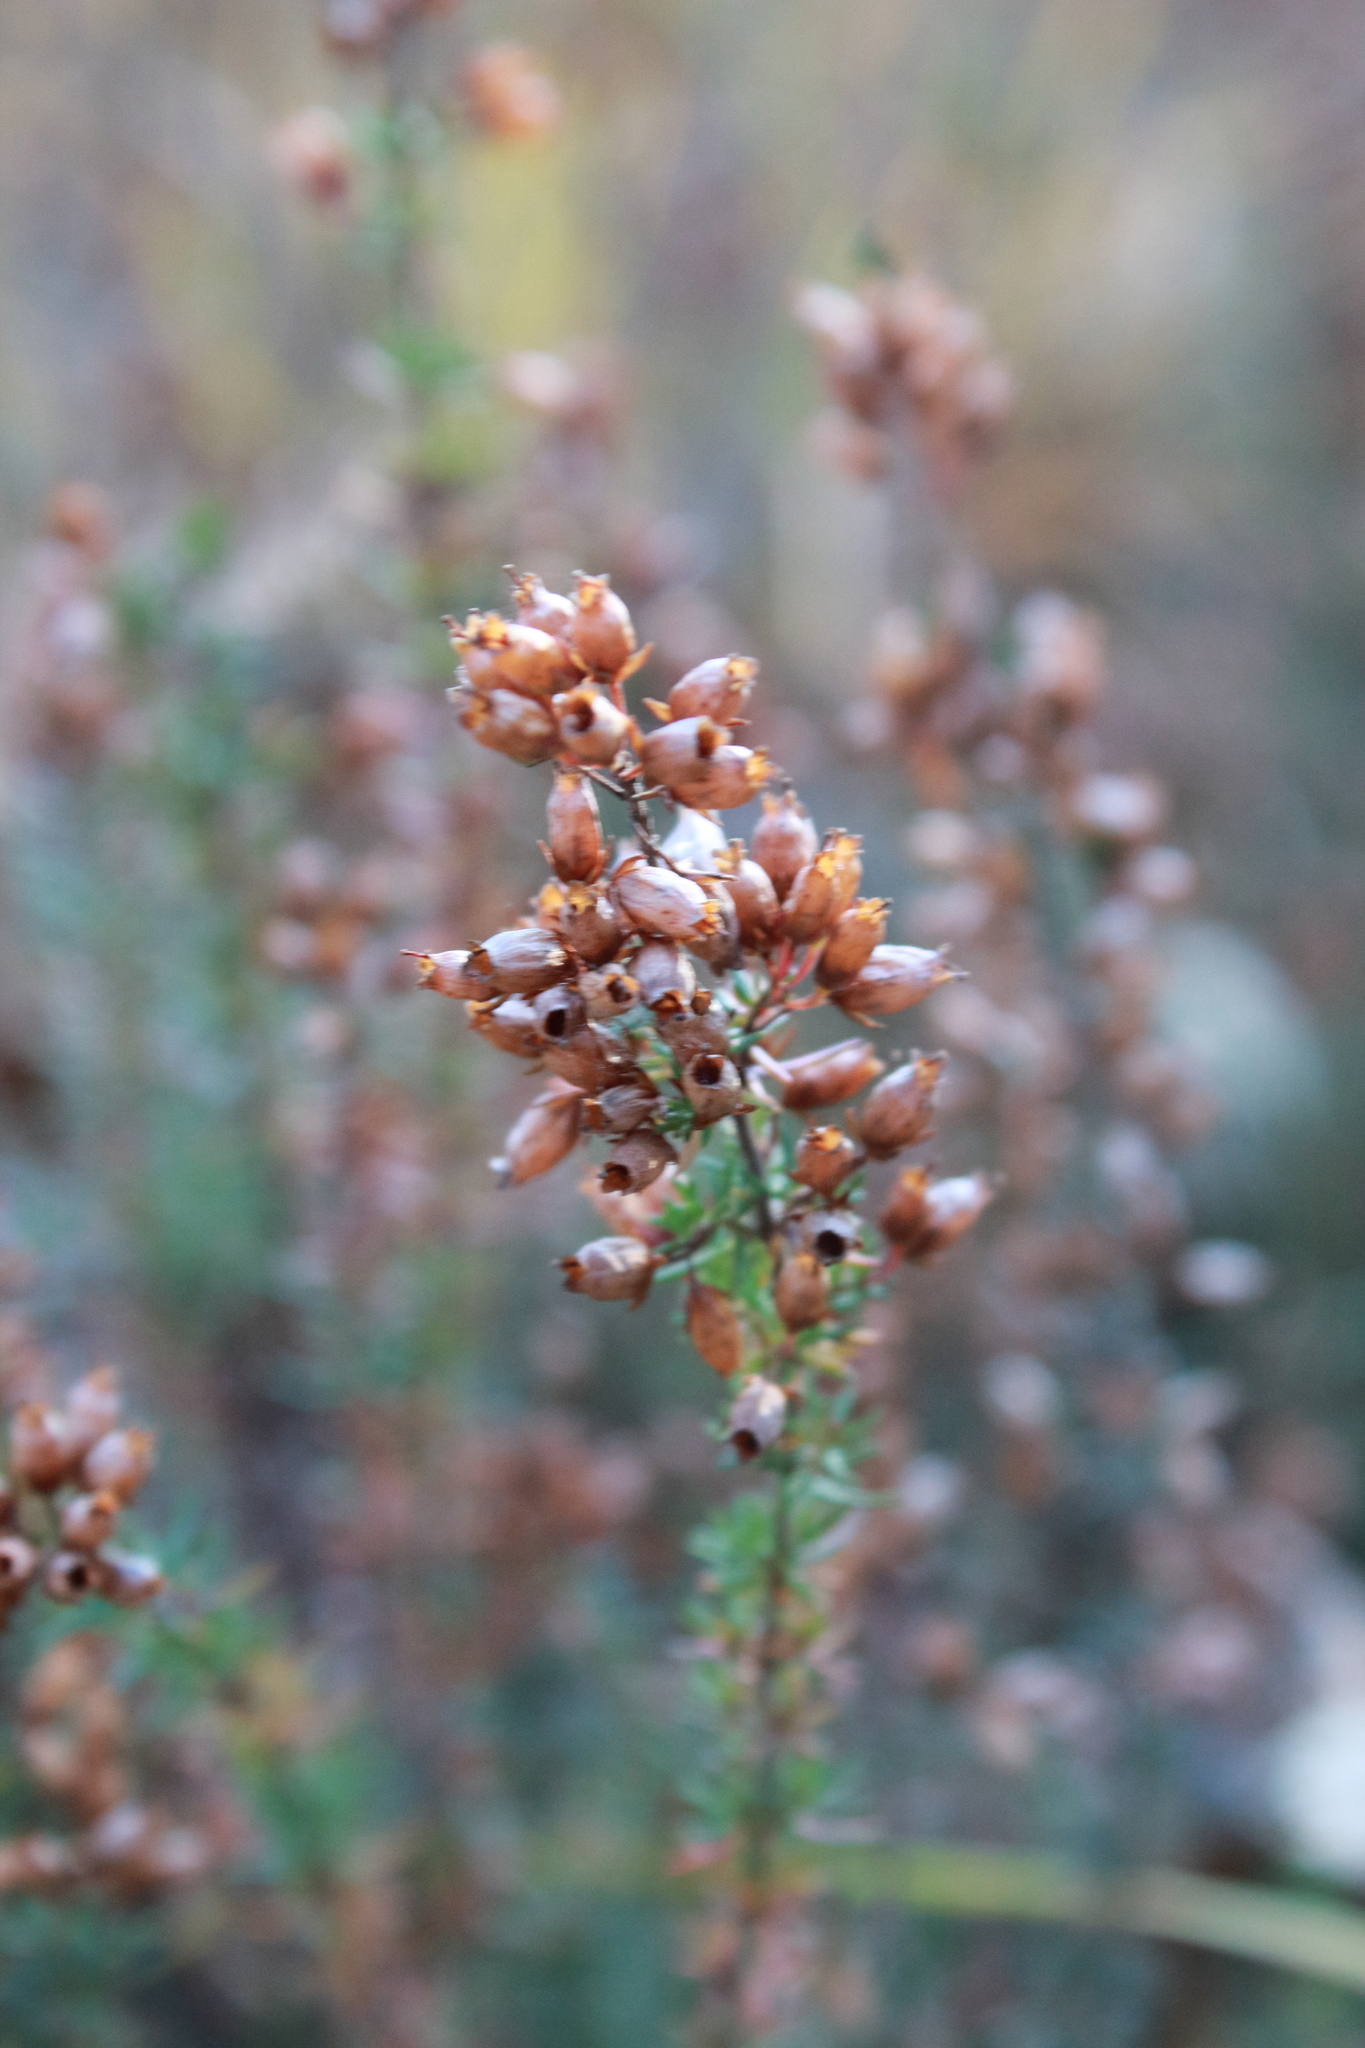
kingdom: Plantae
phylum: Tracheophyta
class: Magnoliopsida
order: Ericales
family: Ericaceae
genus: Erica
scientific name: Erica cinerea
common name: Bell heather
